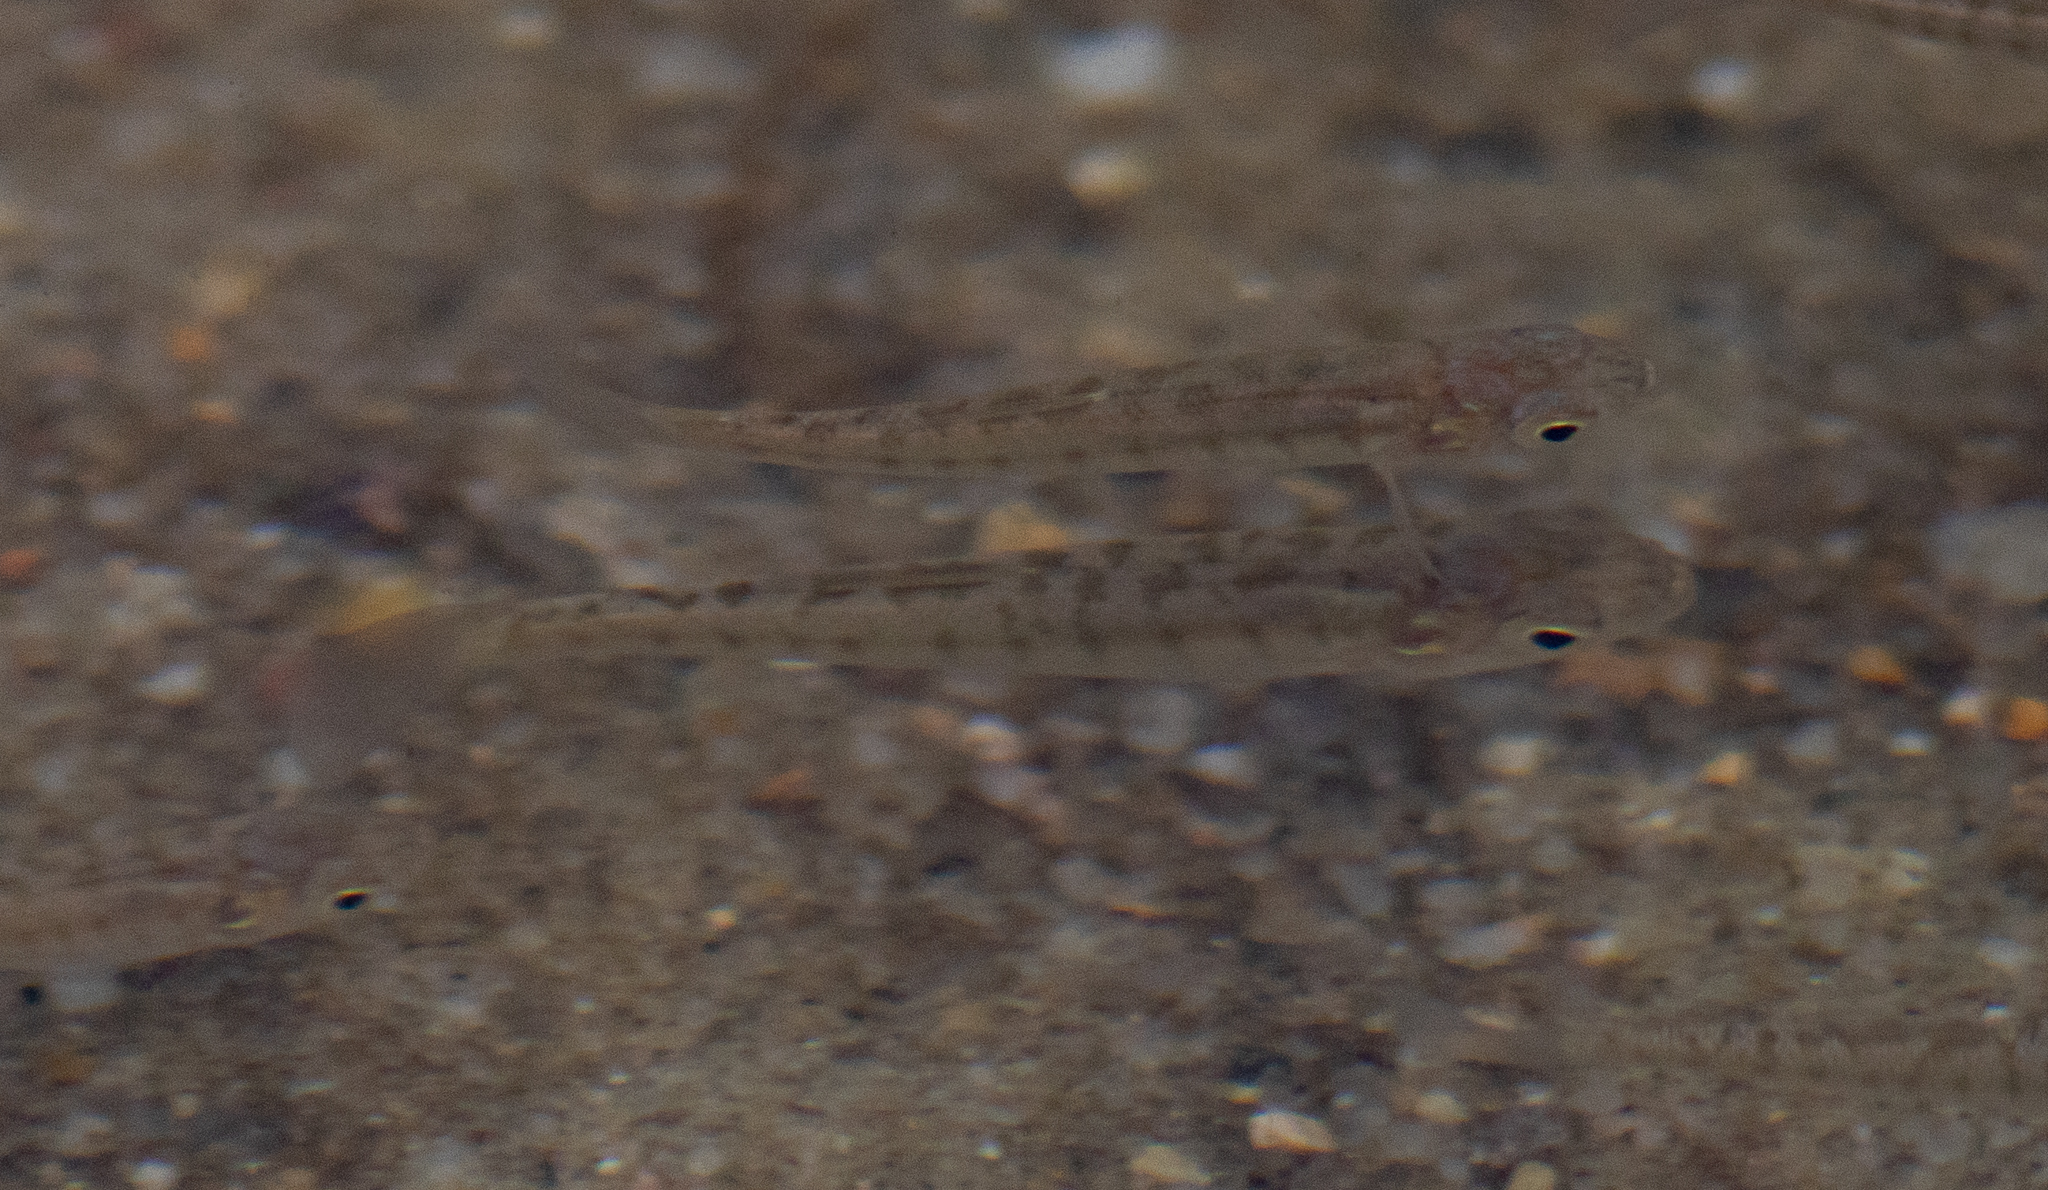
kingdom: Animalia
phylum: Chordata
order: Cyprinodontiformes
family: Fundulidae
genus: Fundulus
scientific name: Fundulus diaphanus
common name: Banded killifish
